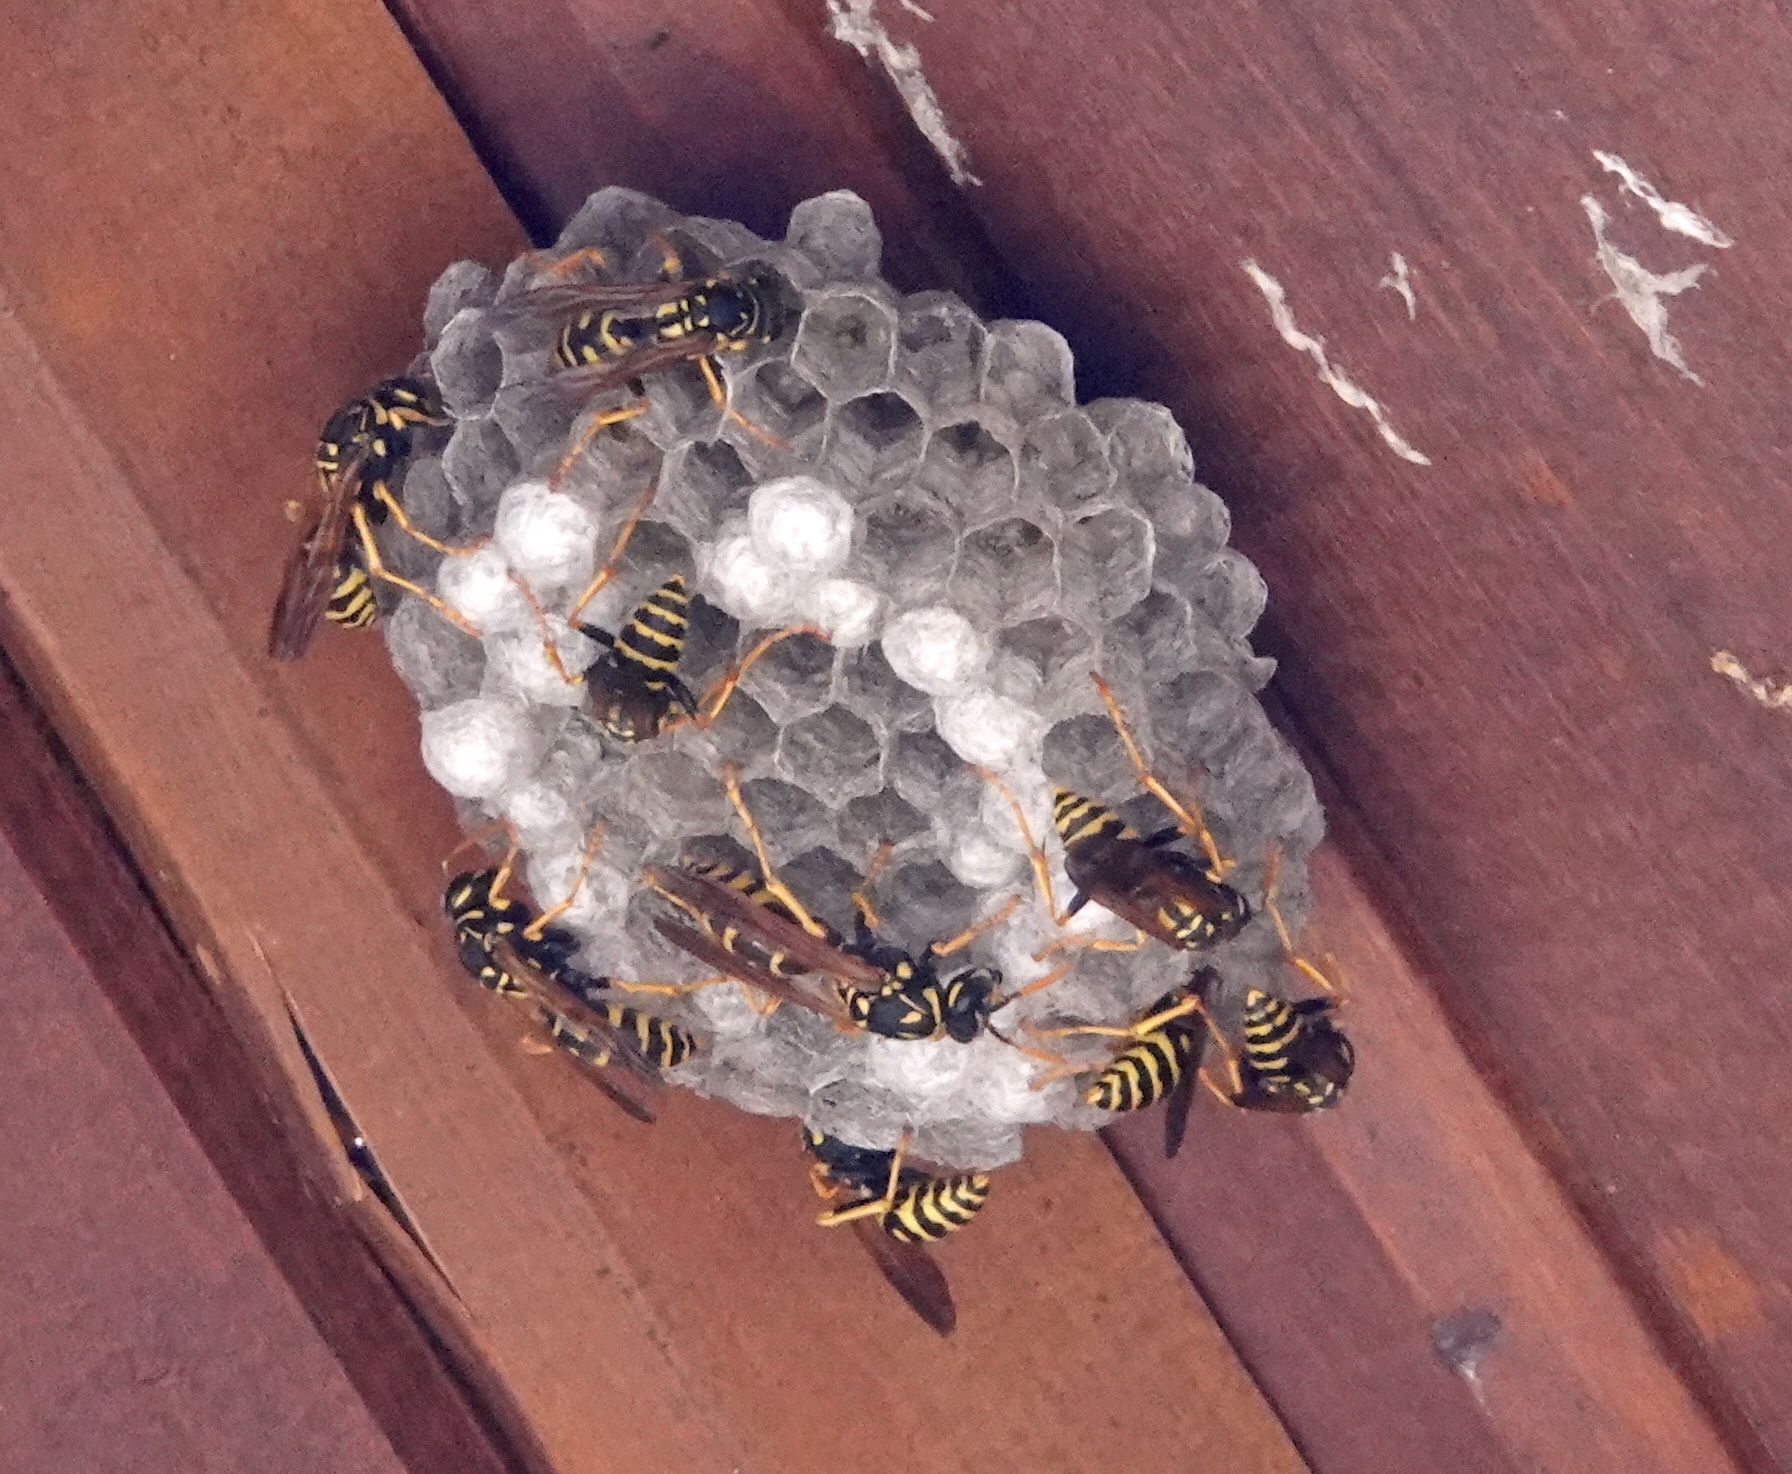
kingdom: Animalia
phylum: Arthropoda
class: Insecta
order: Hymenoptera
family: Eumenidae
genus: Polistes
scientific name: Polistes dominula
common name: Paper wasp
